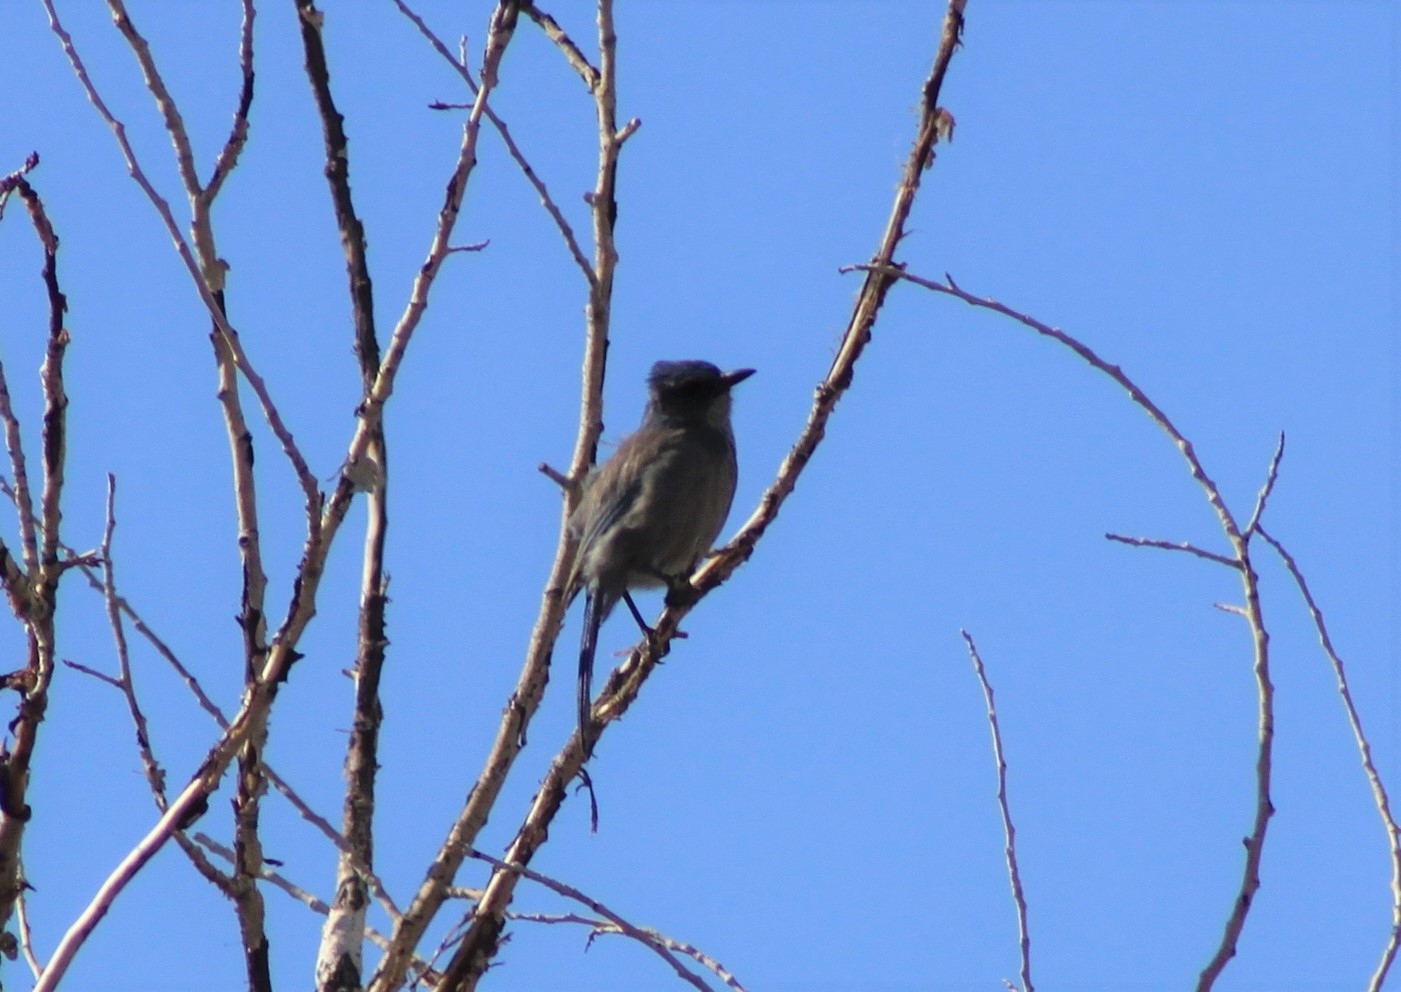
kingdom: Animalia
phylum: Chordata
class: Aves
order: Passeriformes
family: Corvidae
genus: Aphelocoma
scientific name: Aphelocoma woodhouseii
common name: Woodhouse's scrub-jay
